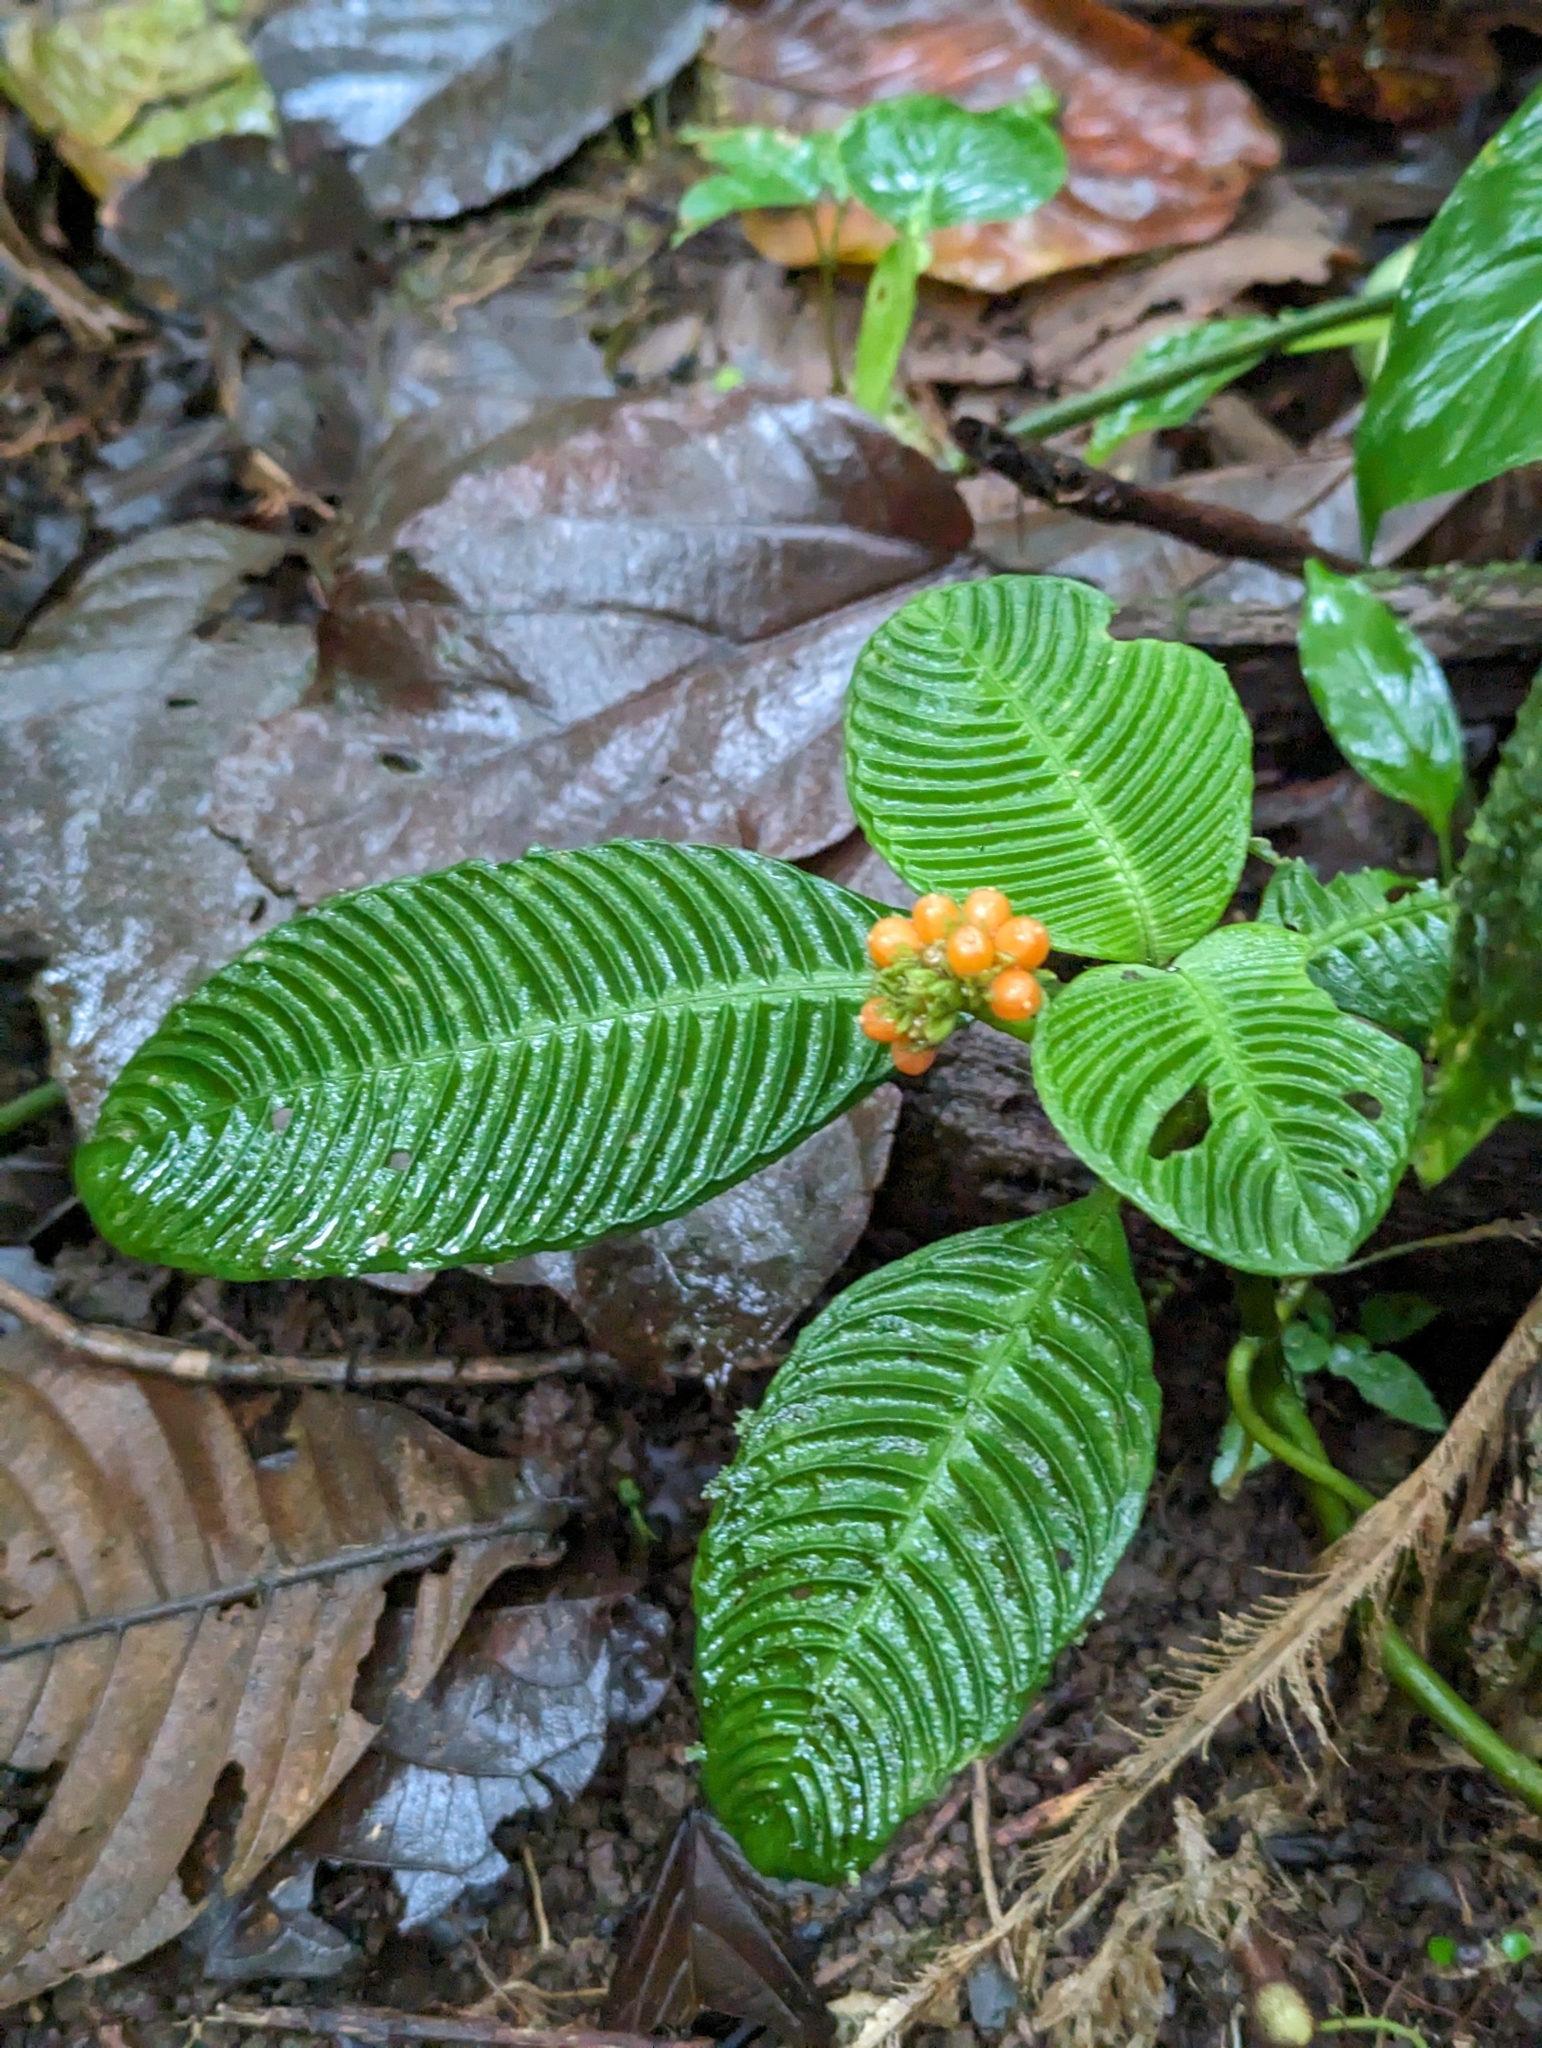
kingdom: Plantae
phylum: Tracheophyta
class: Magnoliopsida
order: Gentianales
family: Rubiaceae
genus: Notopleura
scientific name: Notopleura polyphlebia
